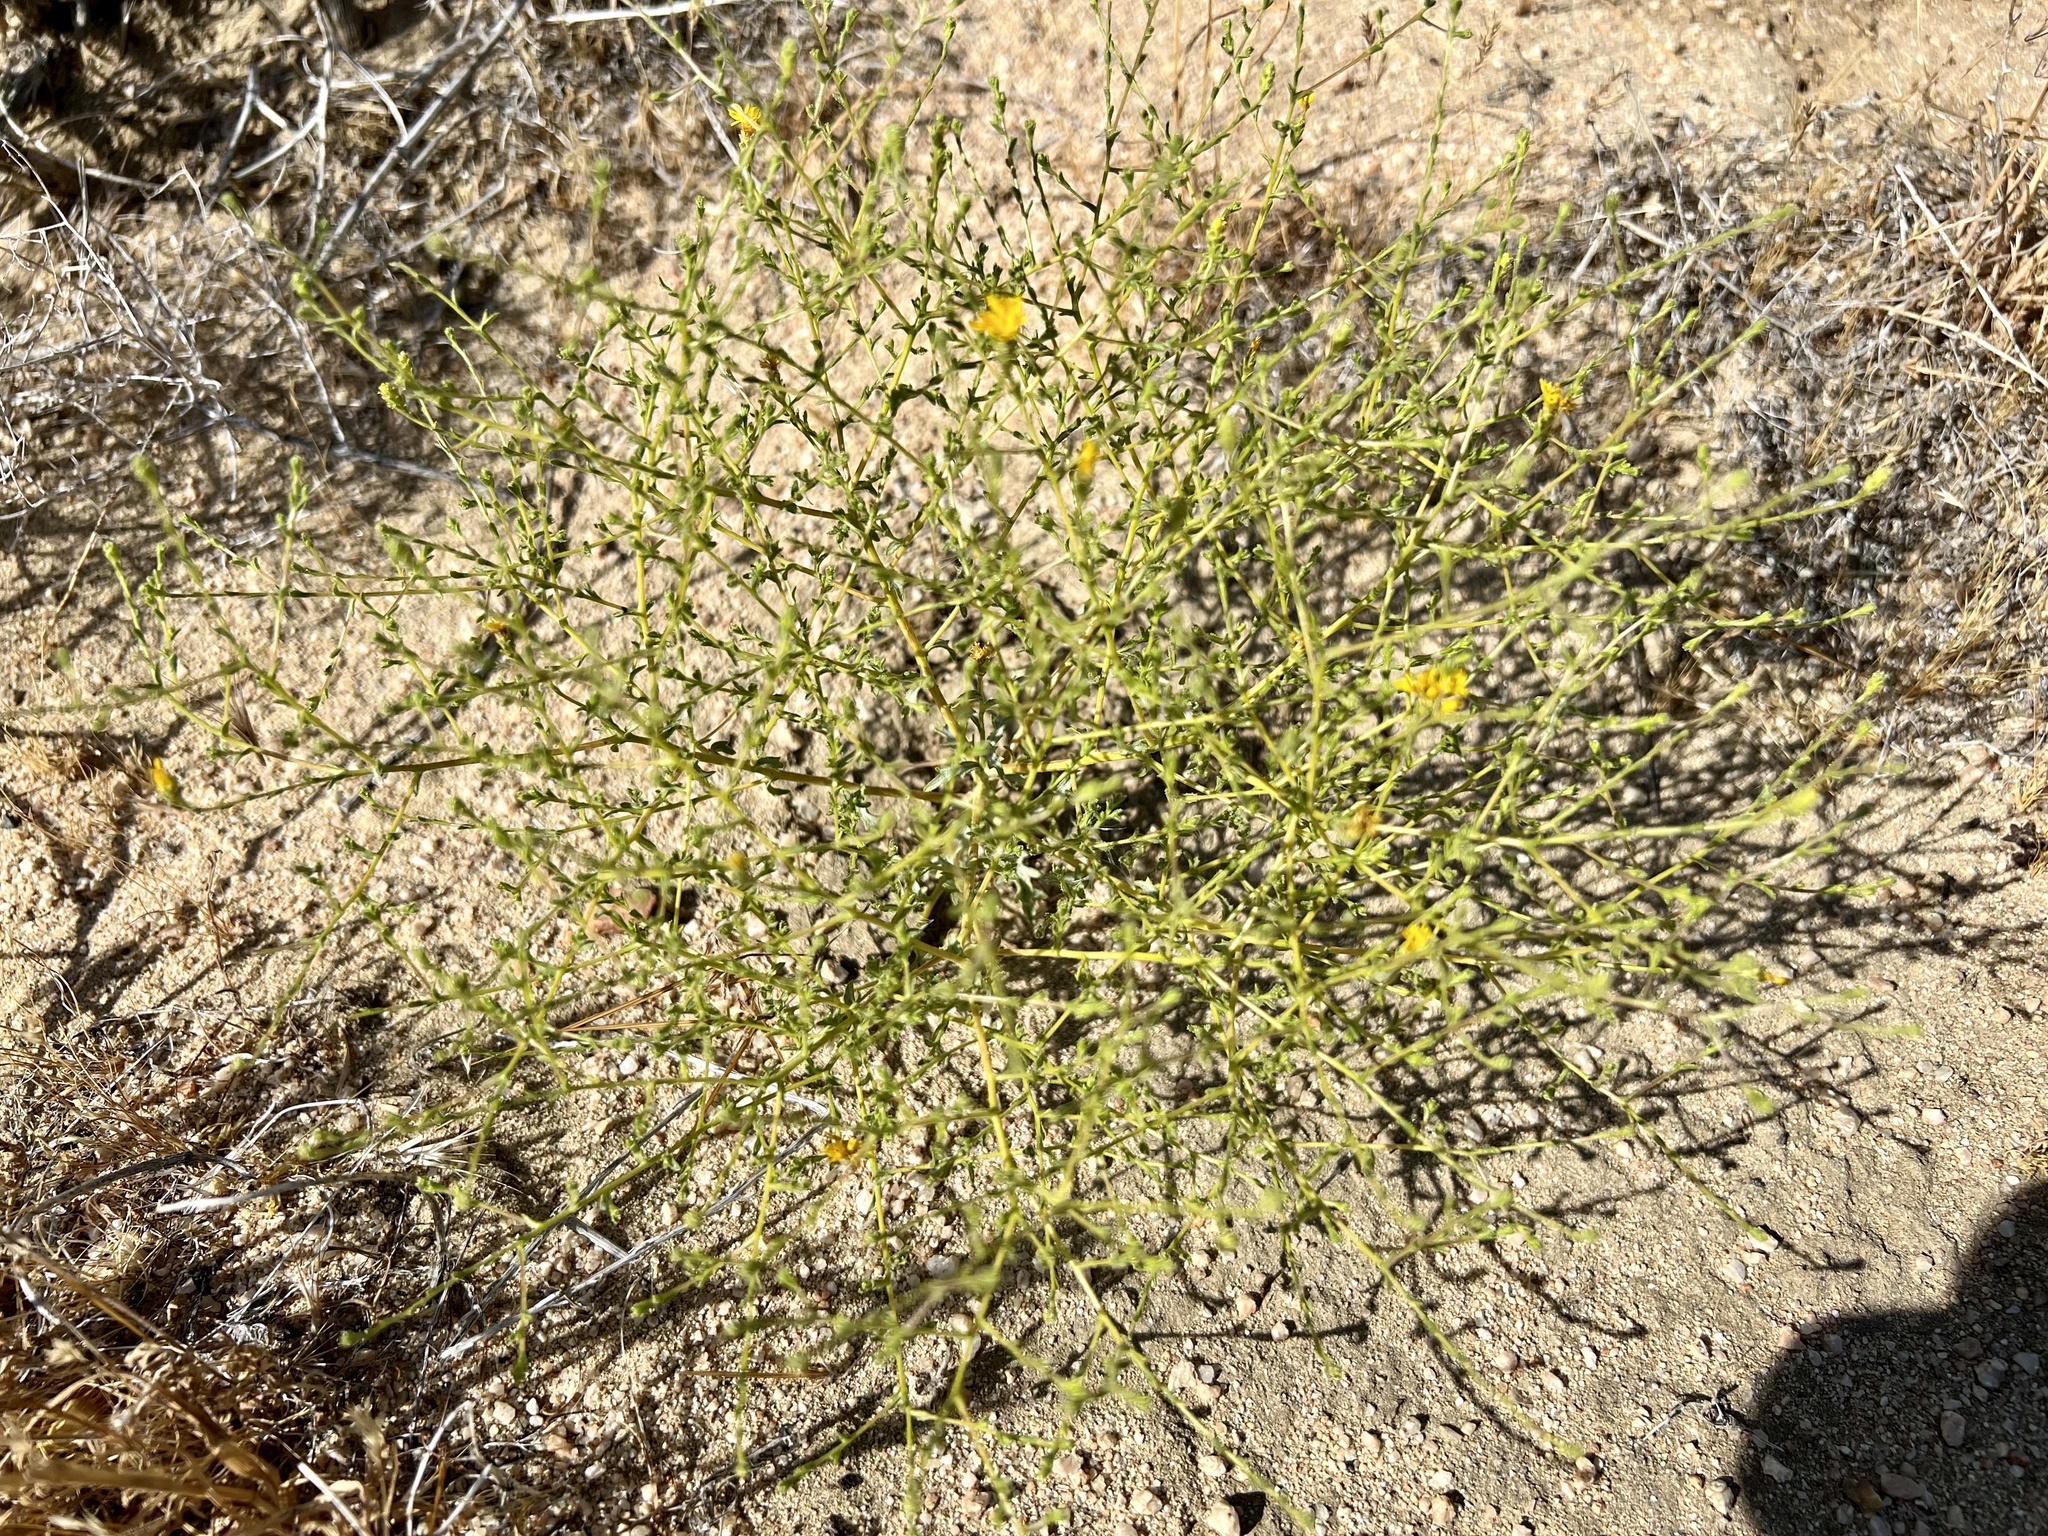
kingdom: Plantae
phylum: Tracheophyta
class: Magnoliopsida
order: Asterales
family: Asteraceae
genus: Lessingia
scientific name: Lessingia glandulifera
